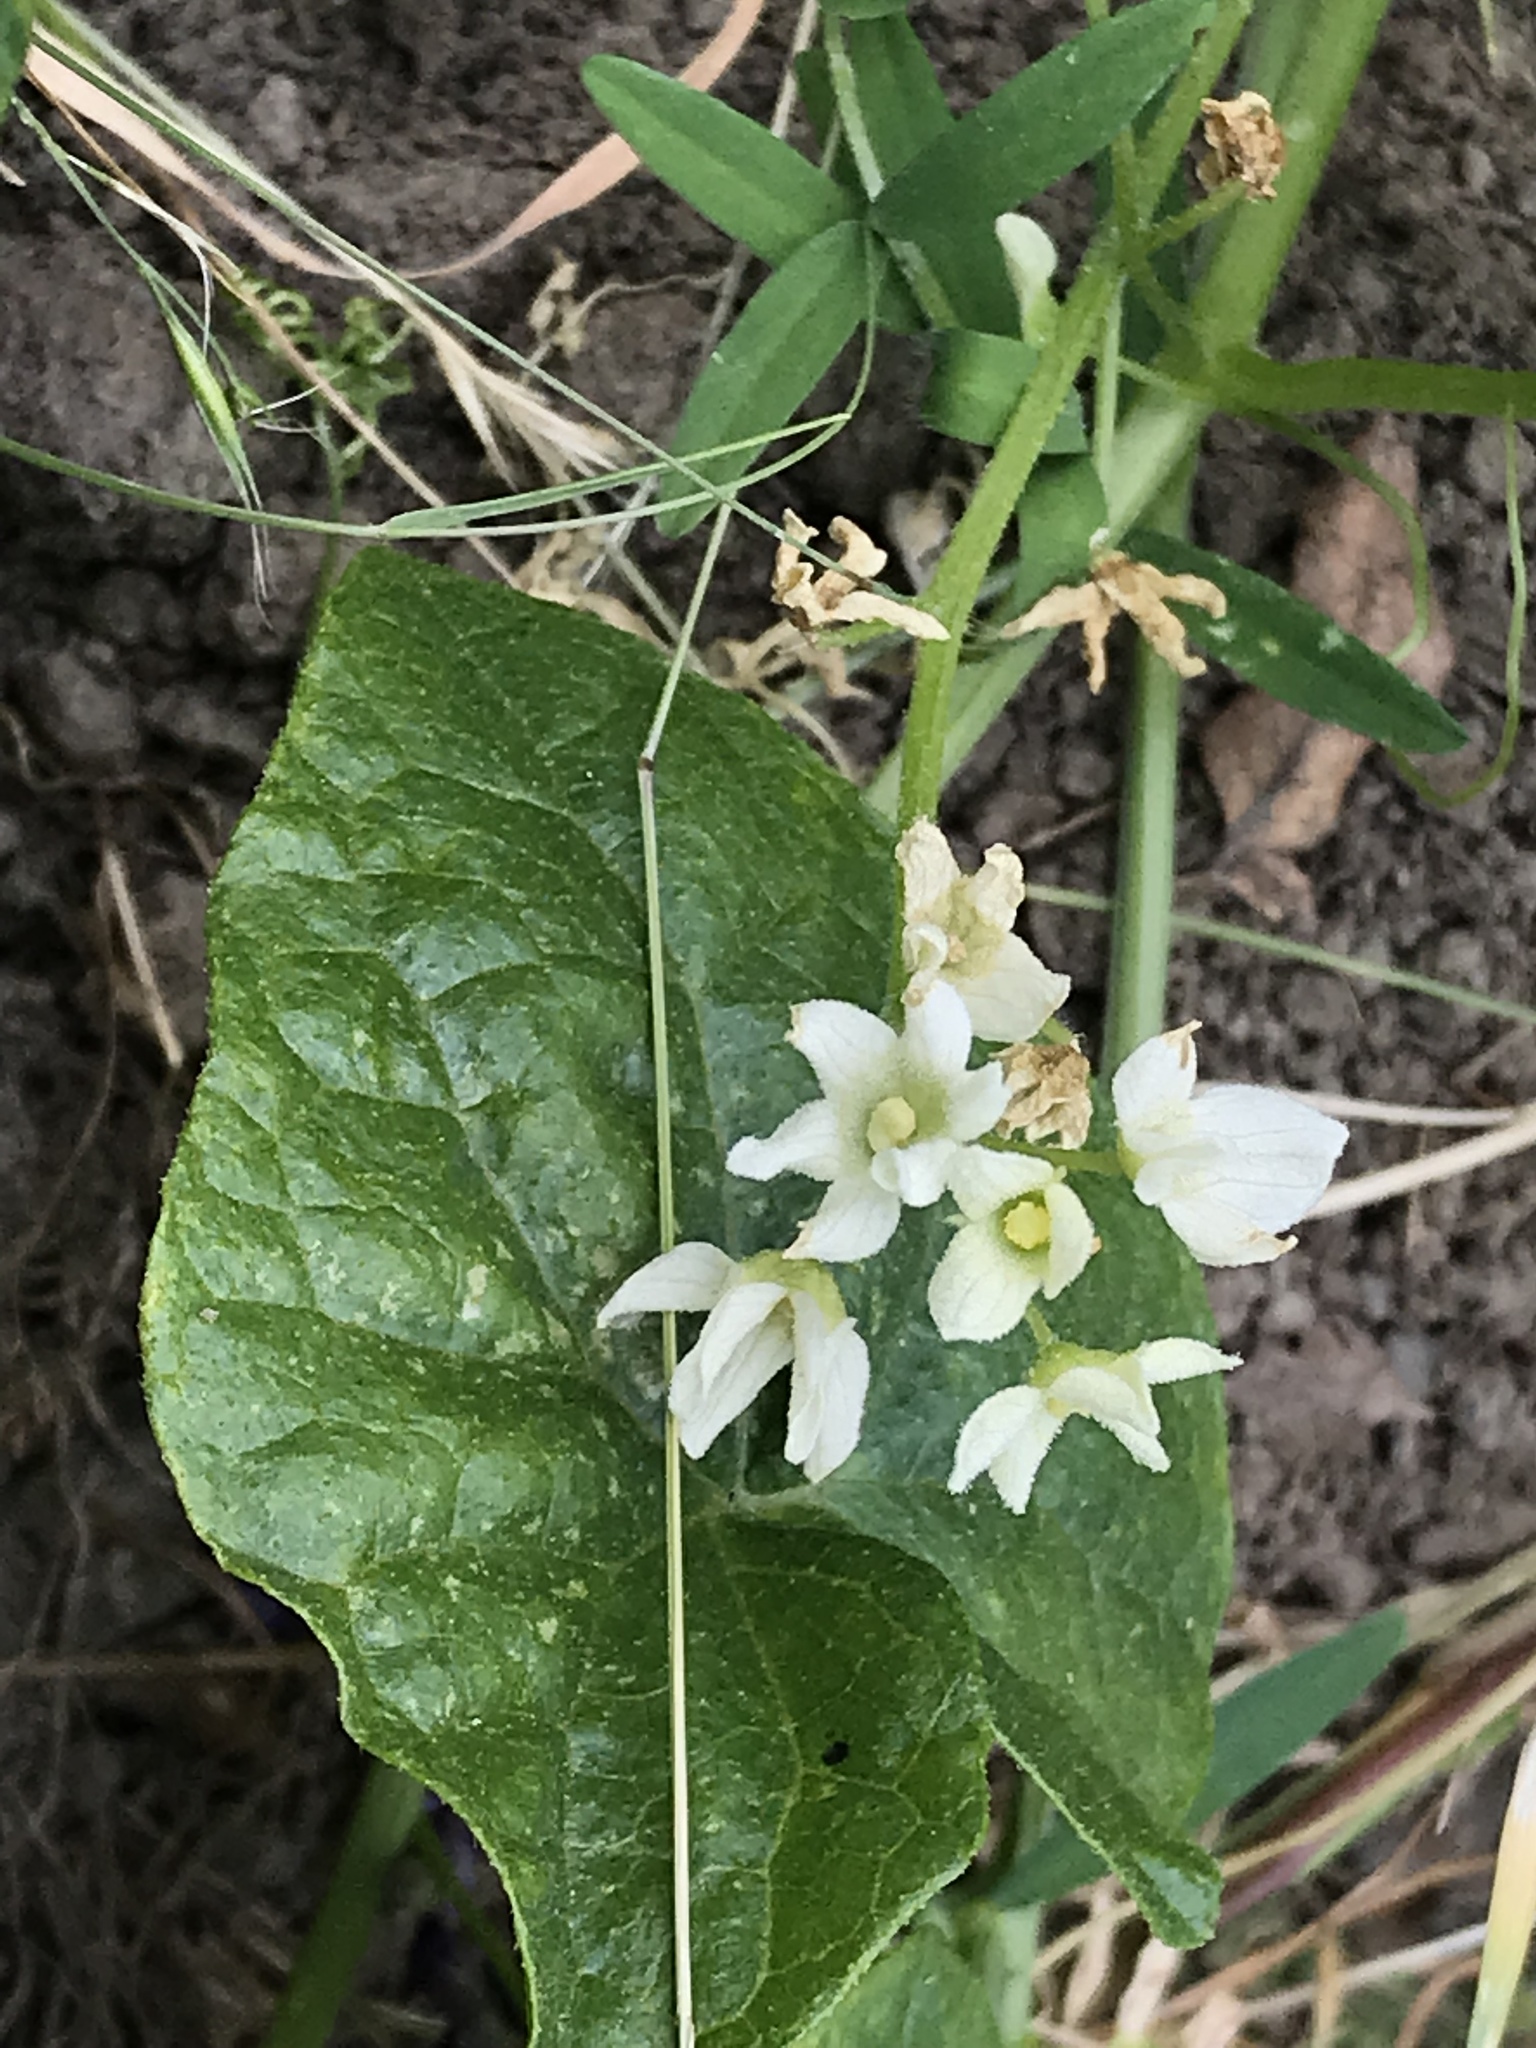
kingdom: Plantae
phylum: Tracheophyta
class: Magnoliopsida
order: Cucurbitales
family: Cucurbitaceae
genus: Marah
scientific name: Marah fabacea
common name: California manroot
